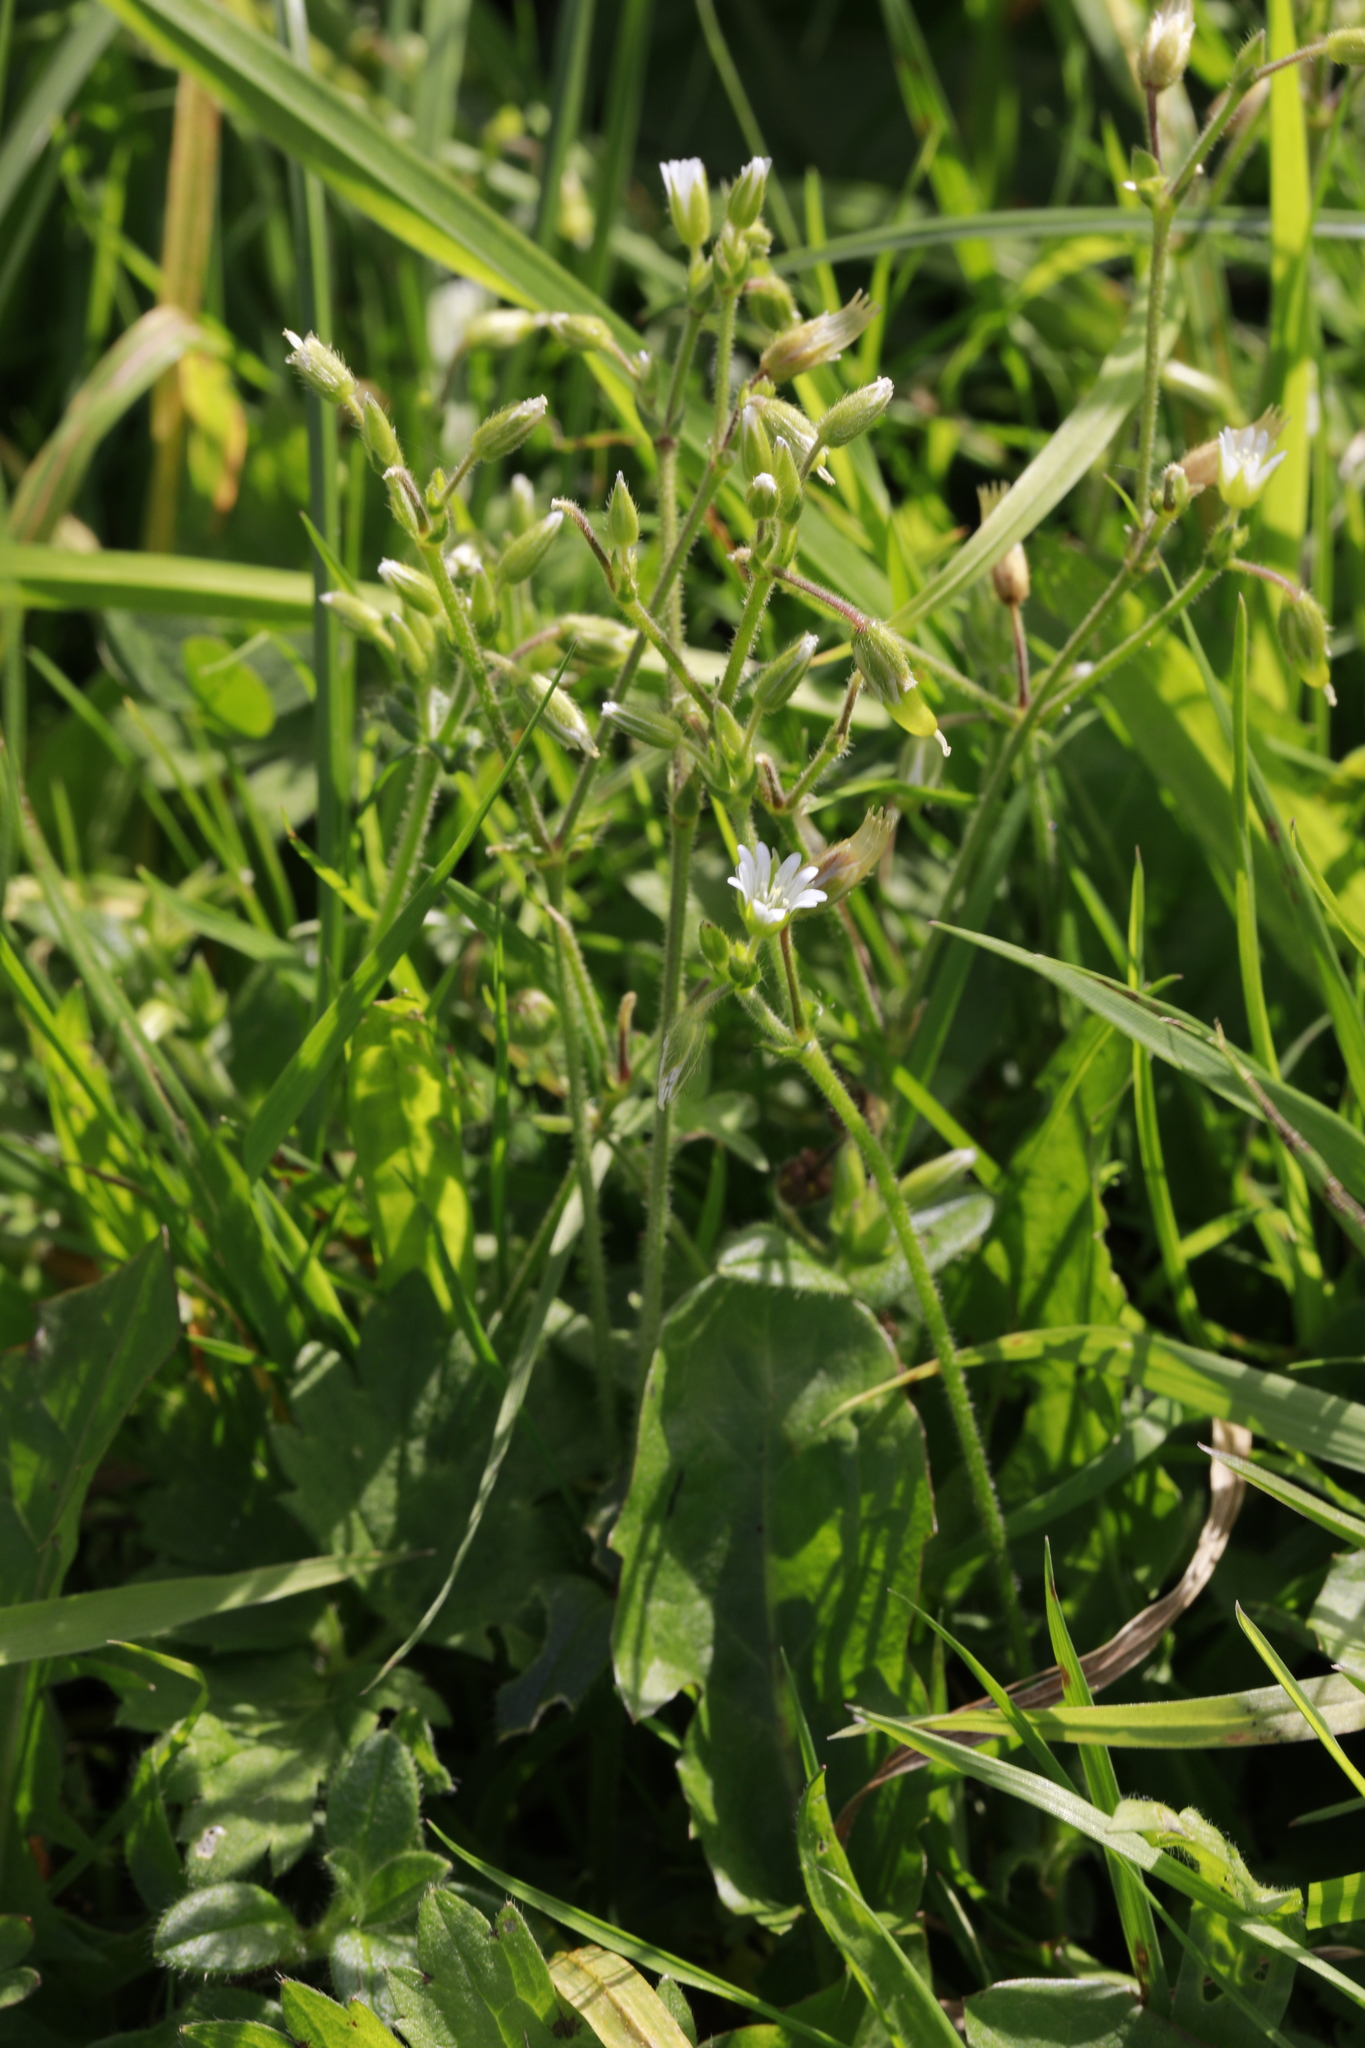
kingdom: Plantae
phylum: Tracheophyta
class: Magnoliopsida
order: Caryophyllales
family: Caryophyllaceae
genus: Cerastium
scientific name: Cerastium fontanum
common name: Common mouse-ear
